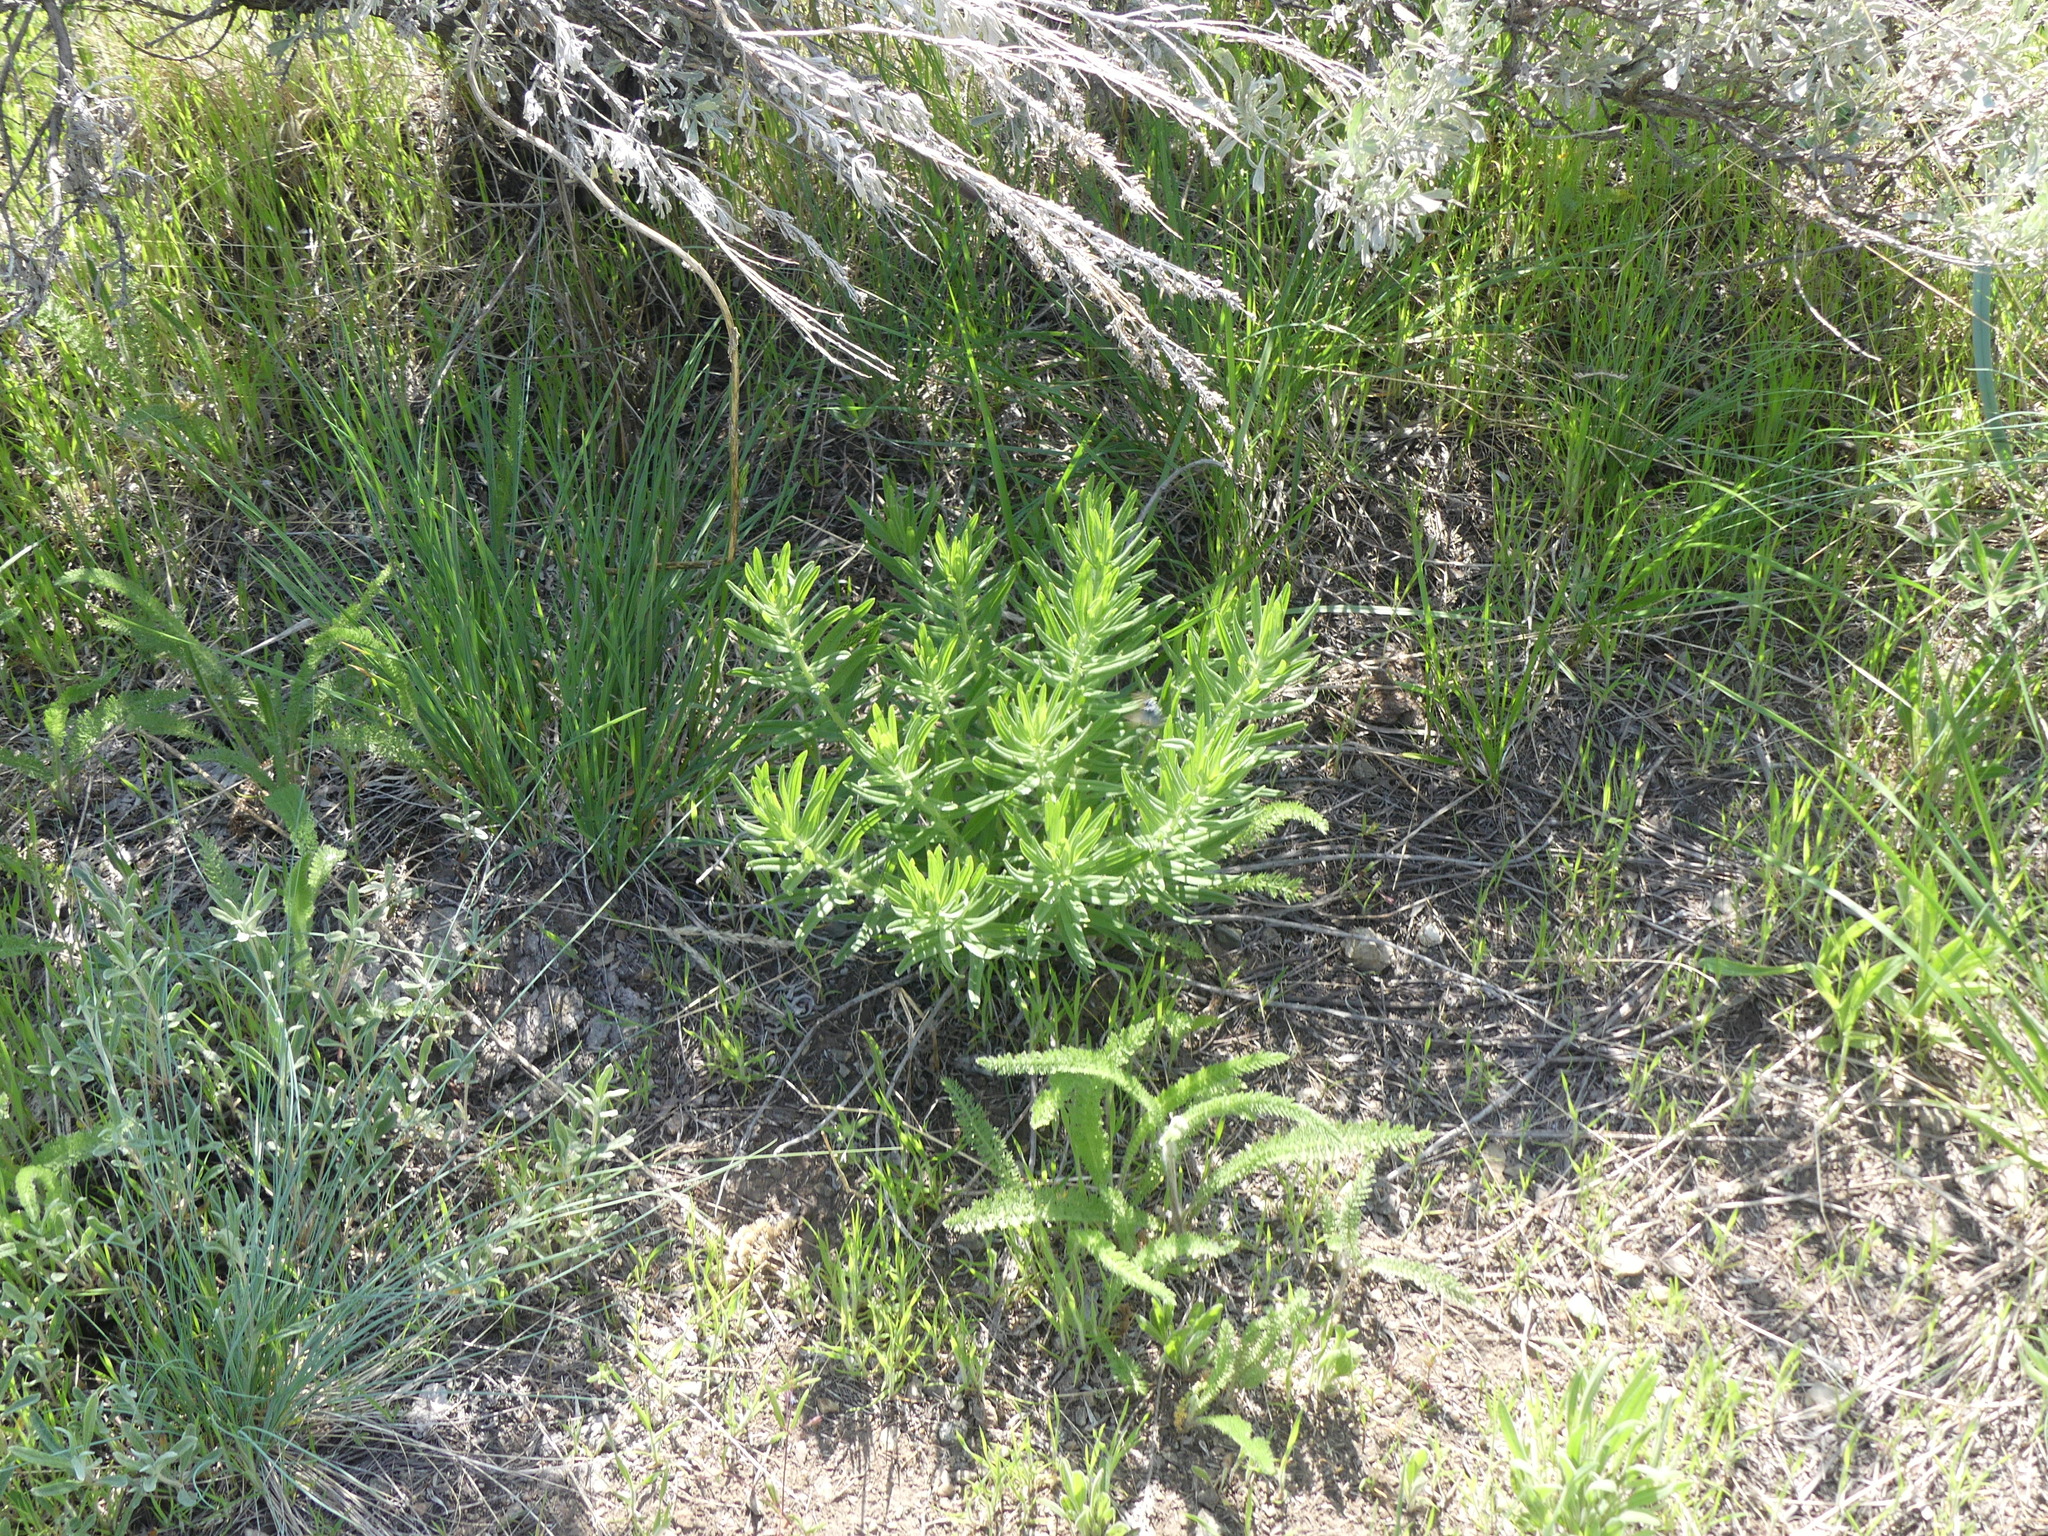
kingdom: Plantae
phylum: Tracheophyta
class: Magnoliopsida
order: Boraginales
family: Boraginaceae
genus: Lithospermum
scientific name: Lithospermum ruderale
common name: Western gromwell
